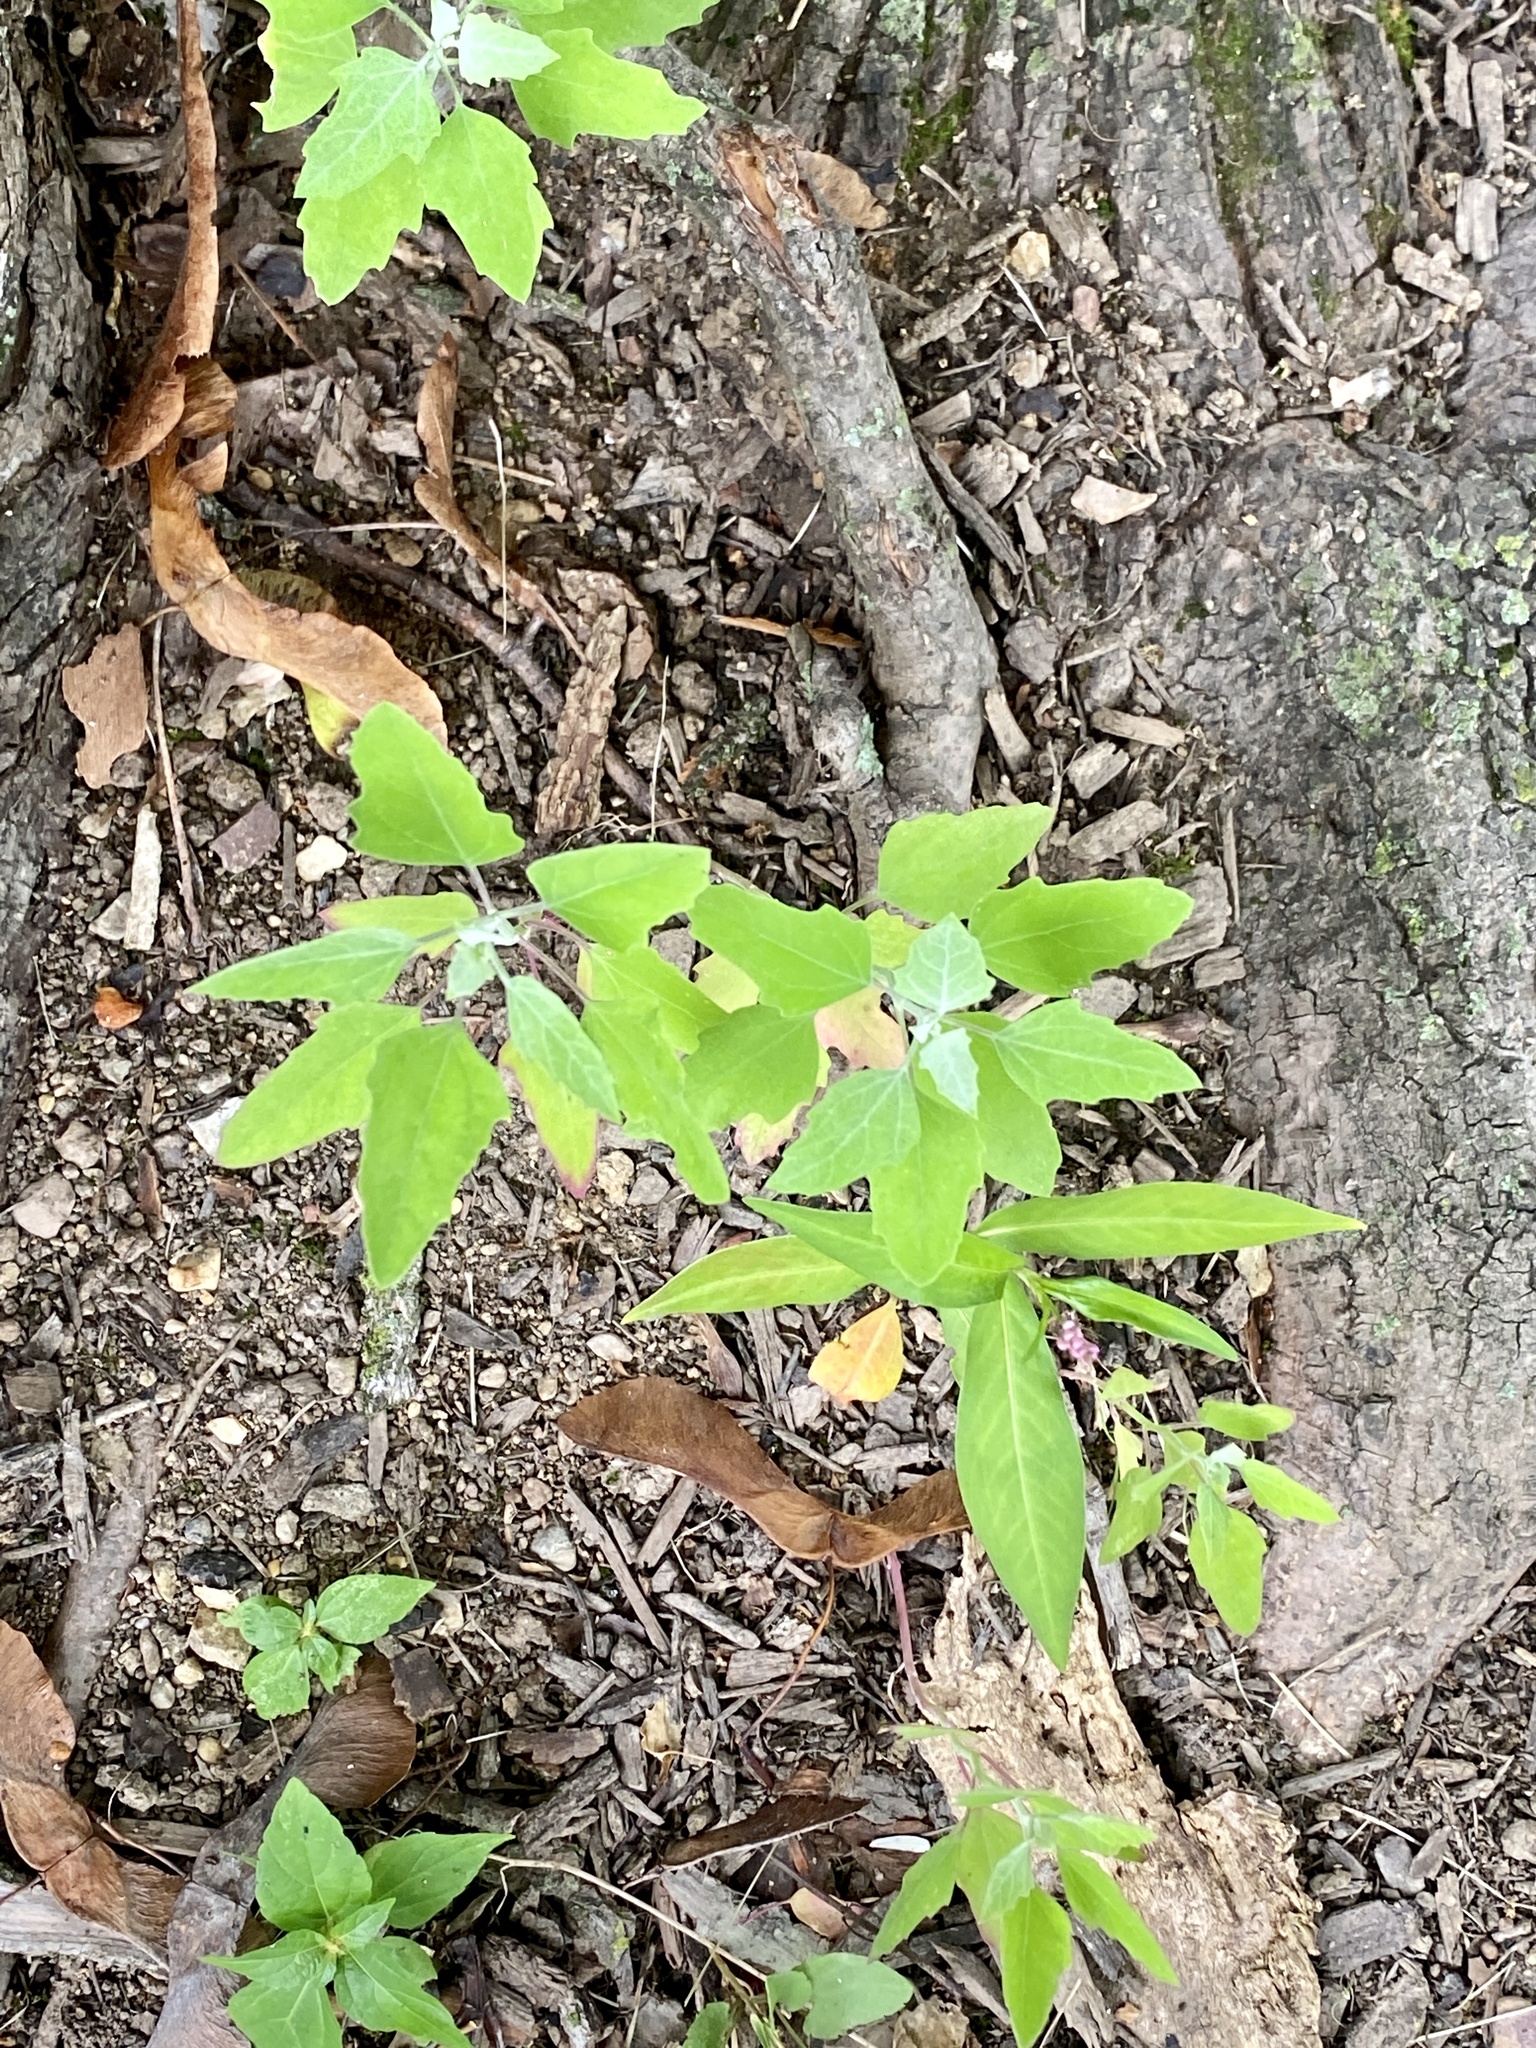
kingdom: Plantae
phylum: Tracheophyta
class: Magnoliopsida
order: Caryophyllales
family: Amaranthaceae
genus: Chenopodium
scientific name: Chenopodium album
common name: Fat-hen
